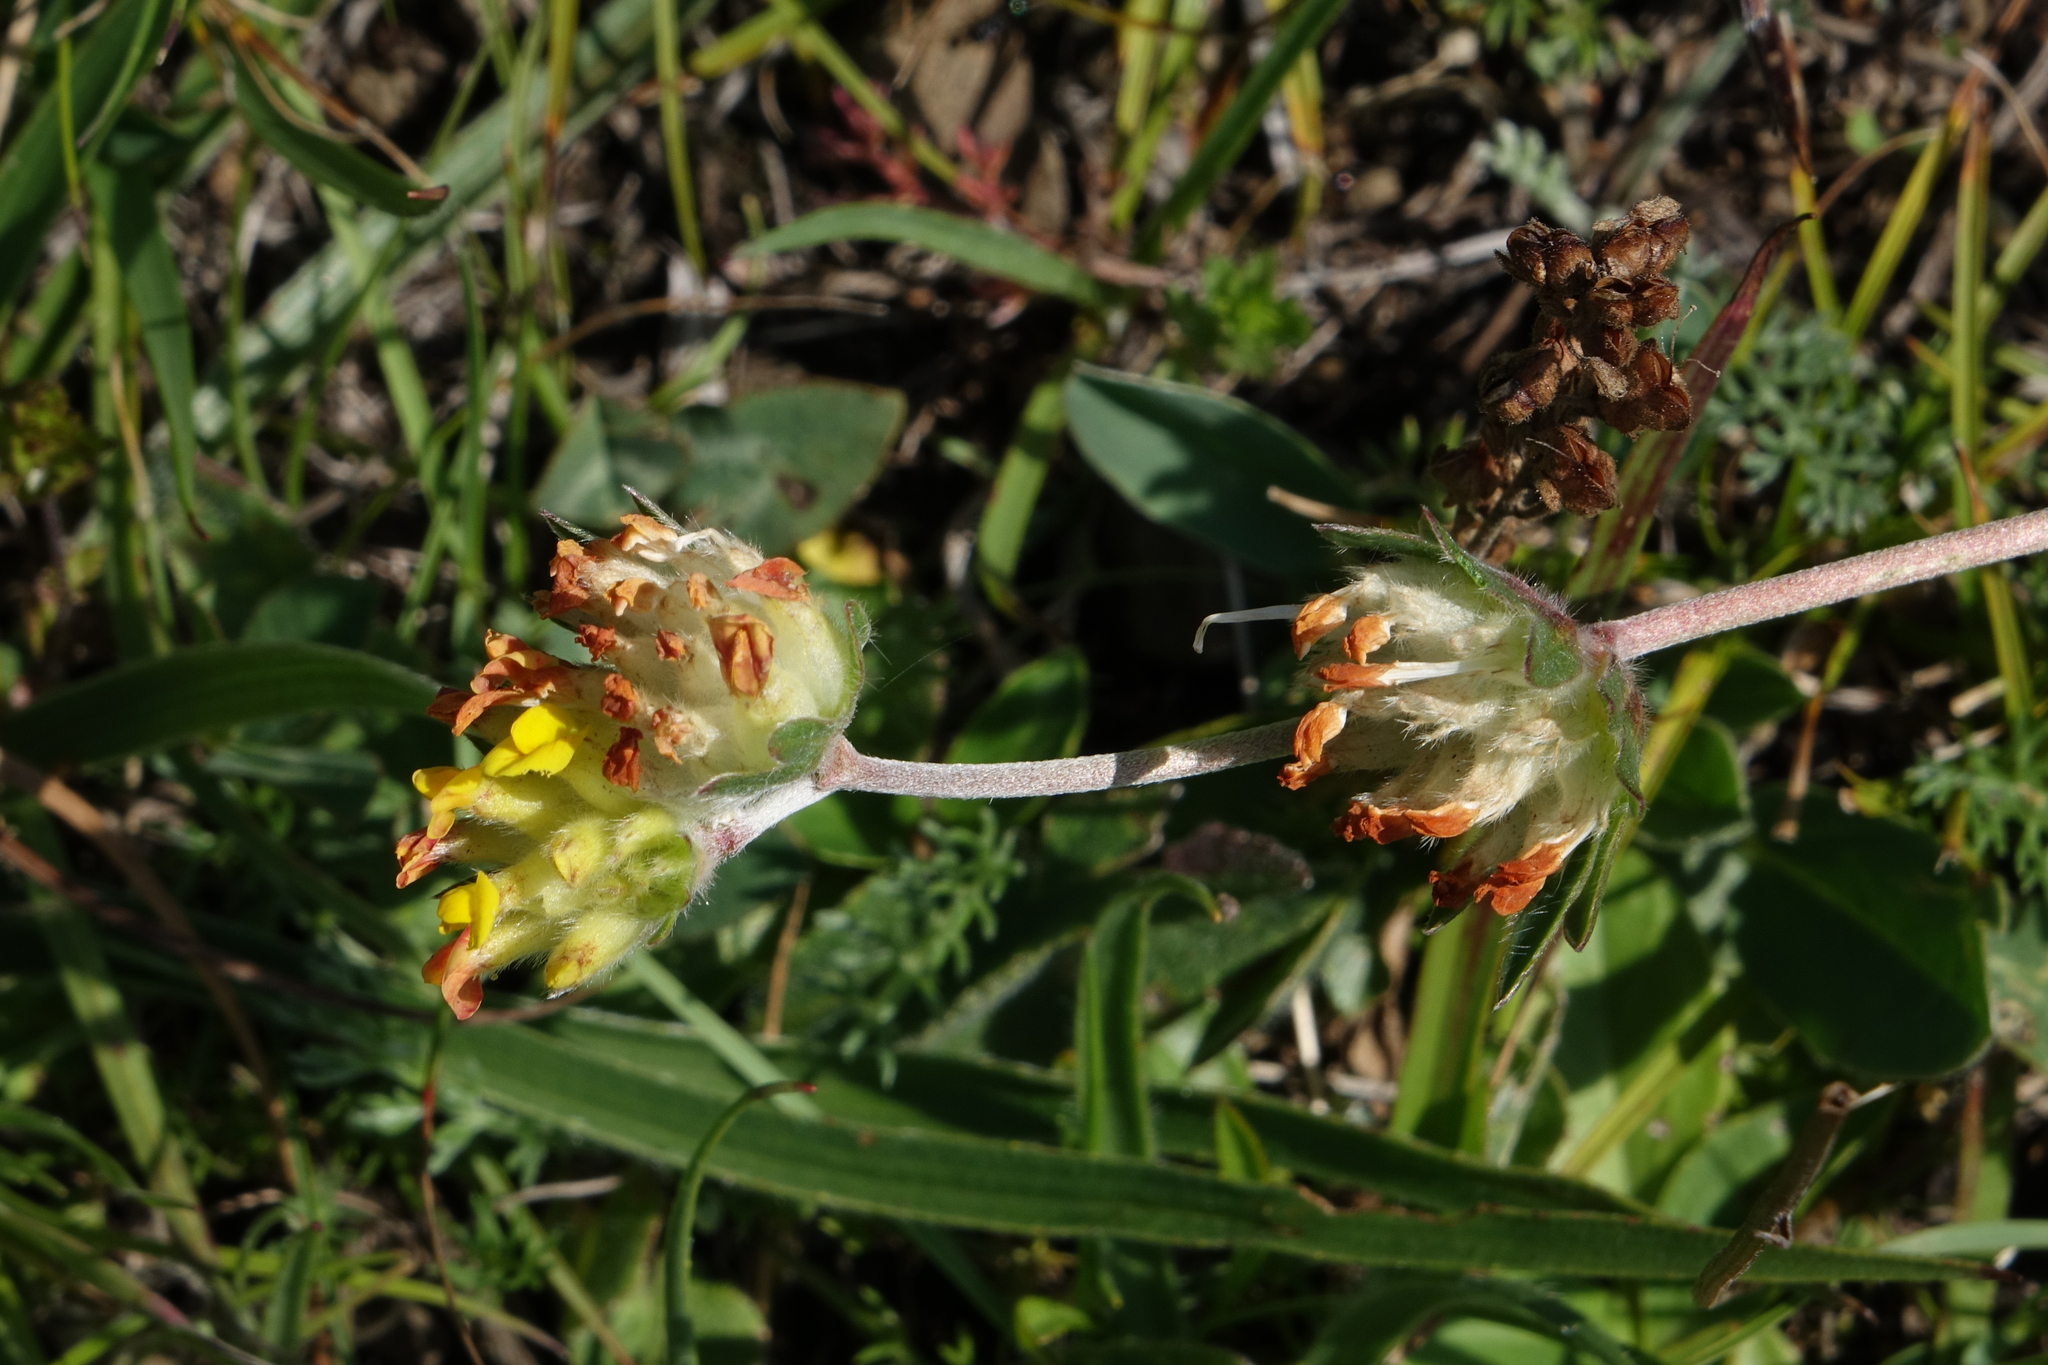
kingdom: Plantae
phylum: Tracheophyta
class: Magnoliopsida
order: Fabales
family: Fabaceae
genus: Anthyllis
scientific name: Anthyllis vulneraria
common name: Kidney vetch
